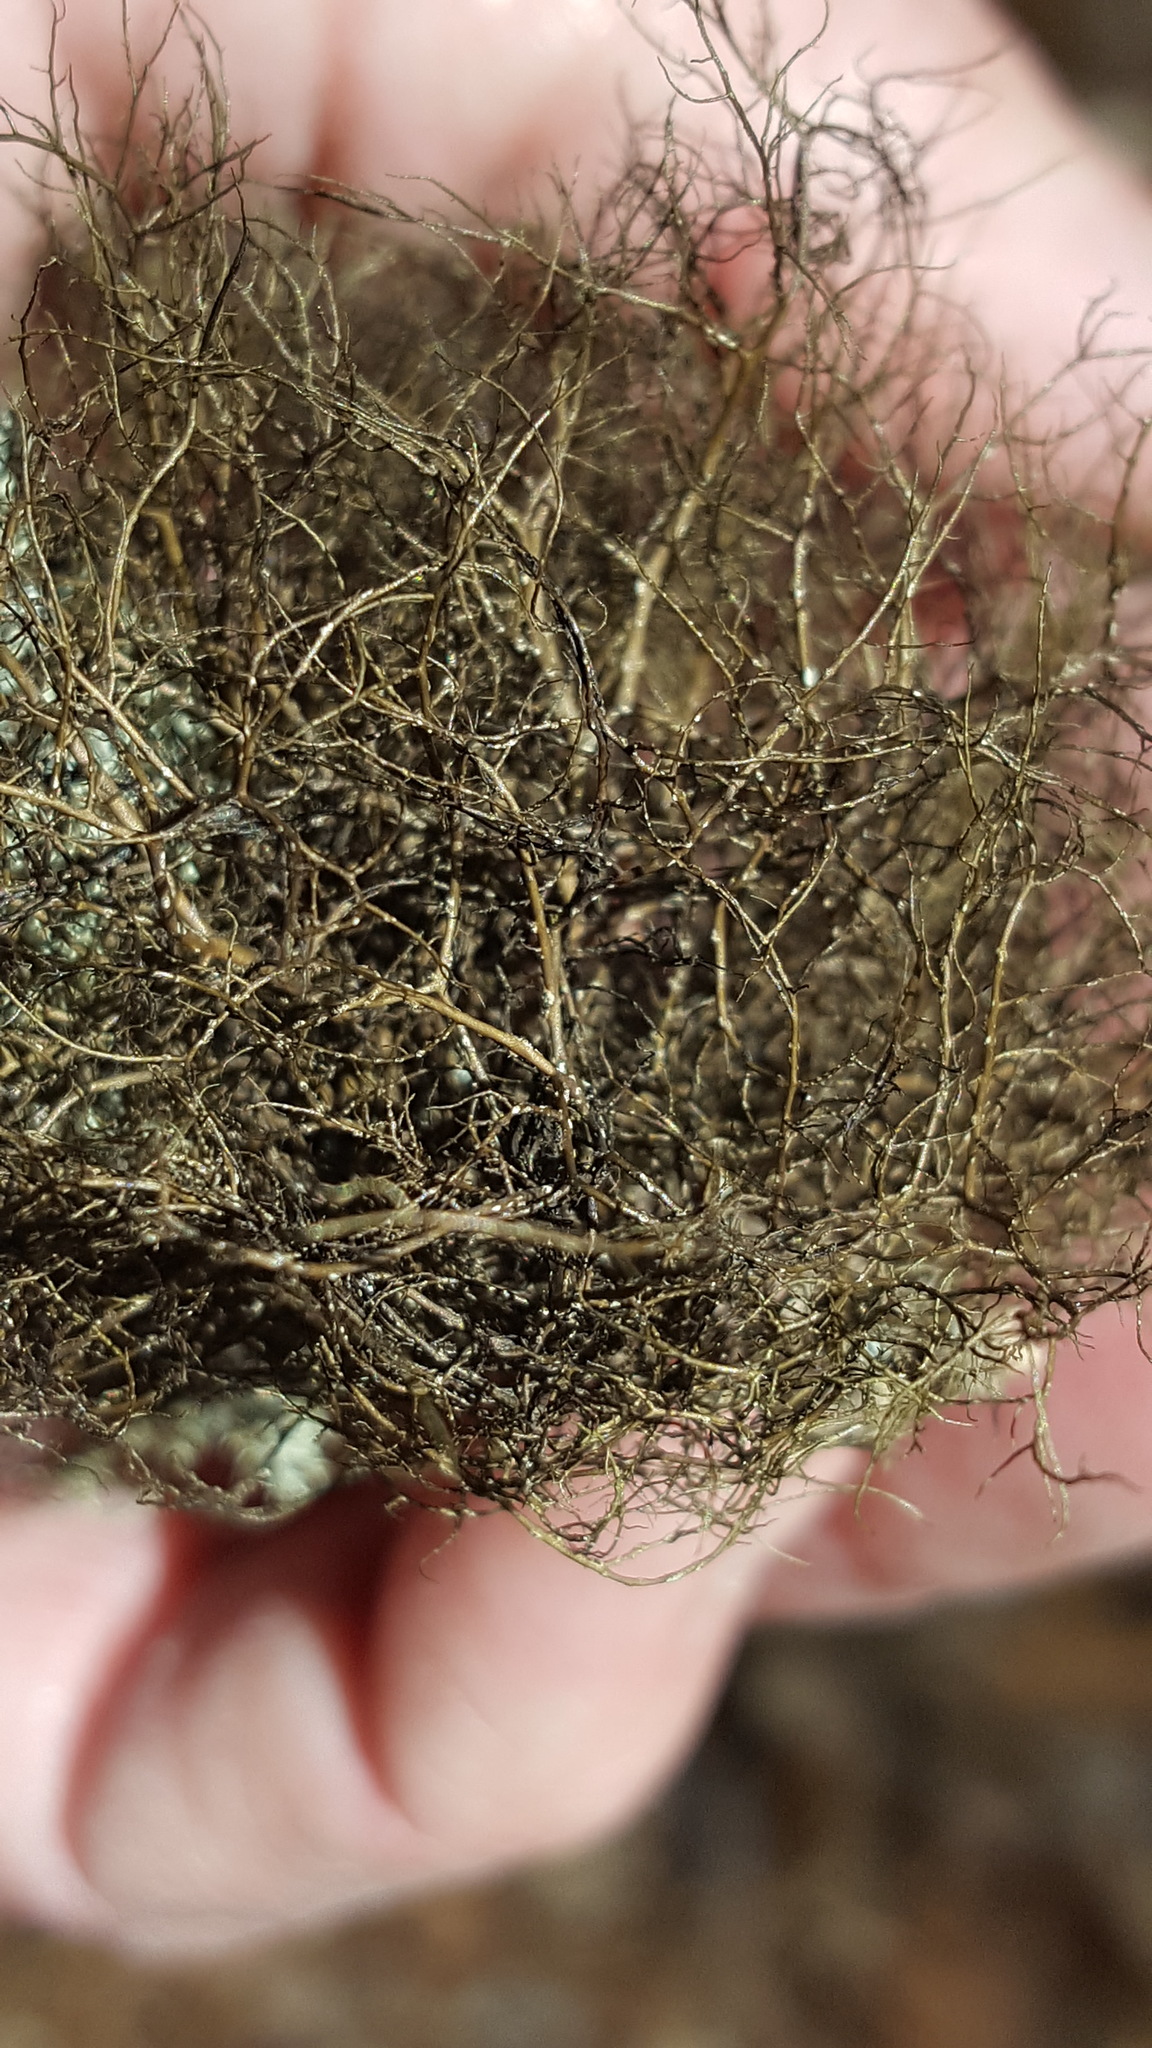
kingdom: Fungi
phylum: Ascomycota
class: Lecanoromycetes
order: Lecanorales
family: Parmeliaceae
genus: Bryoria
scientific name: Bryoria furcellata
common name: Forked hair-lichen
